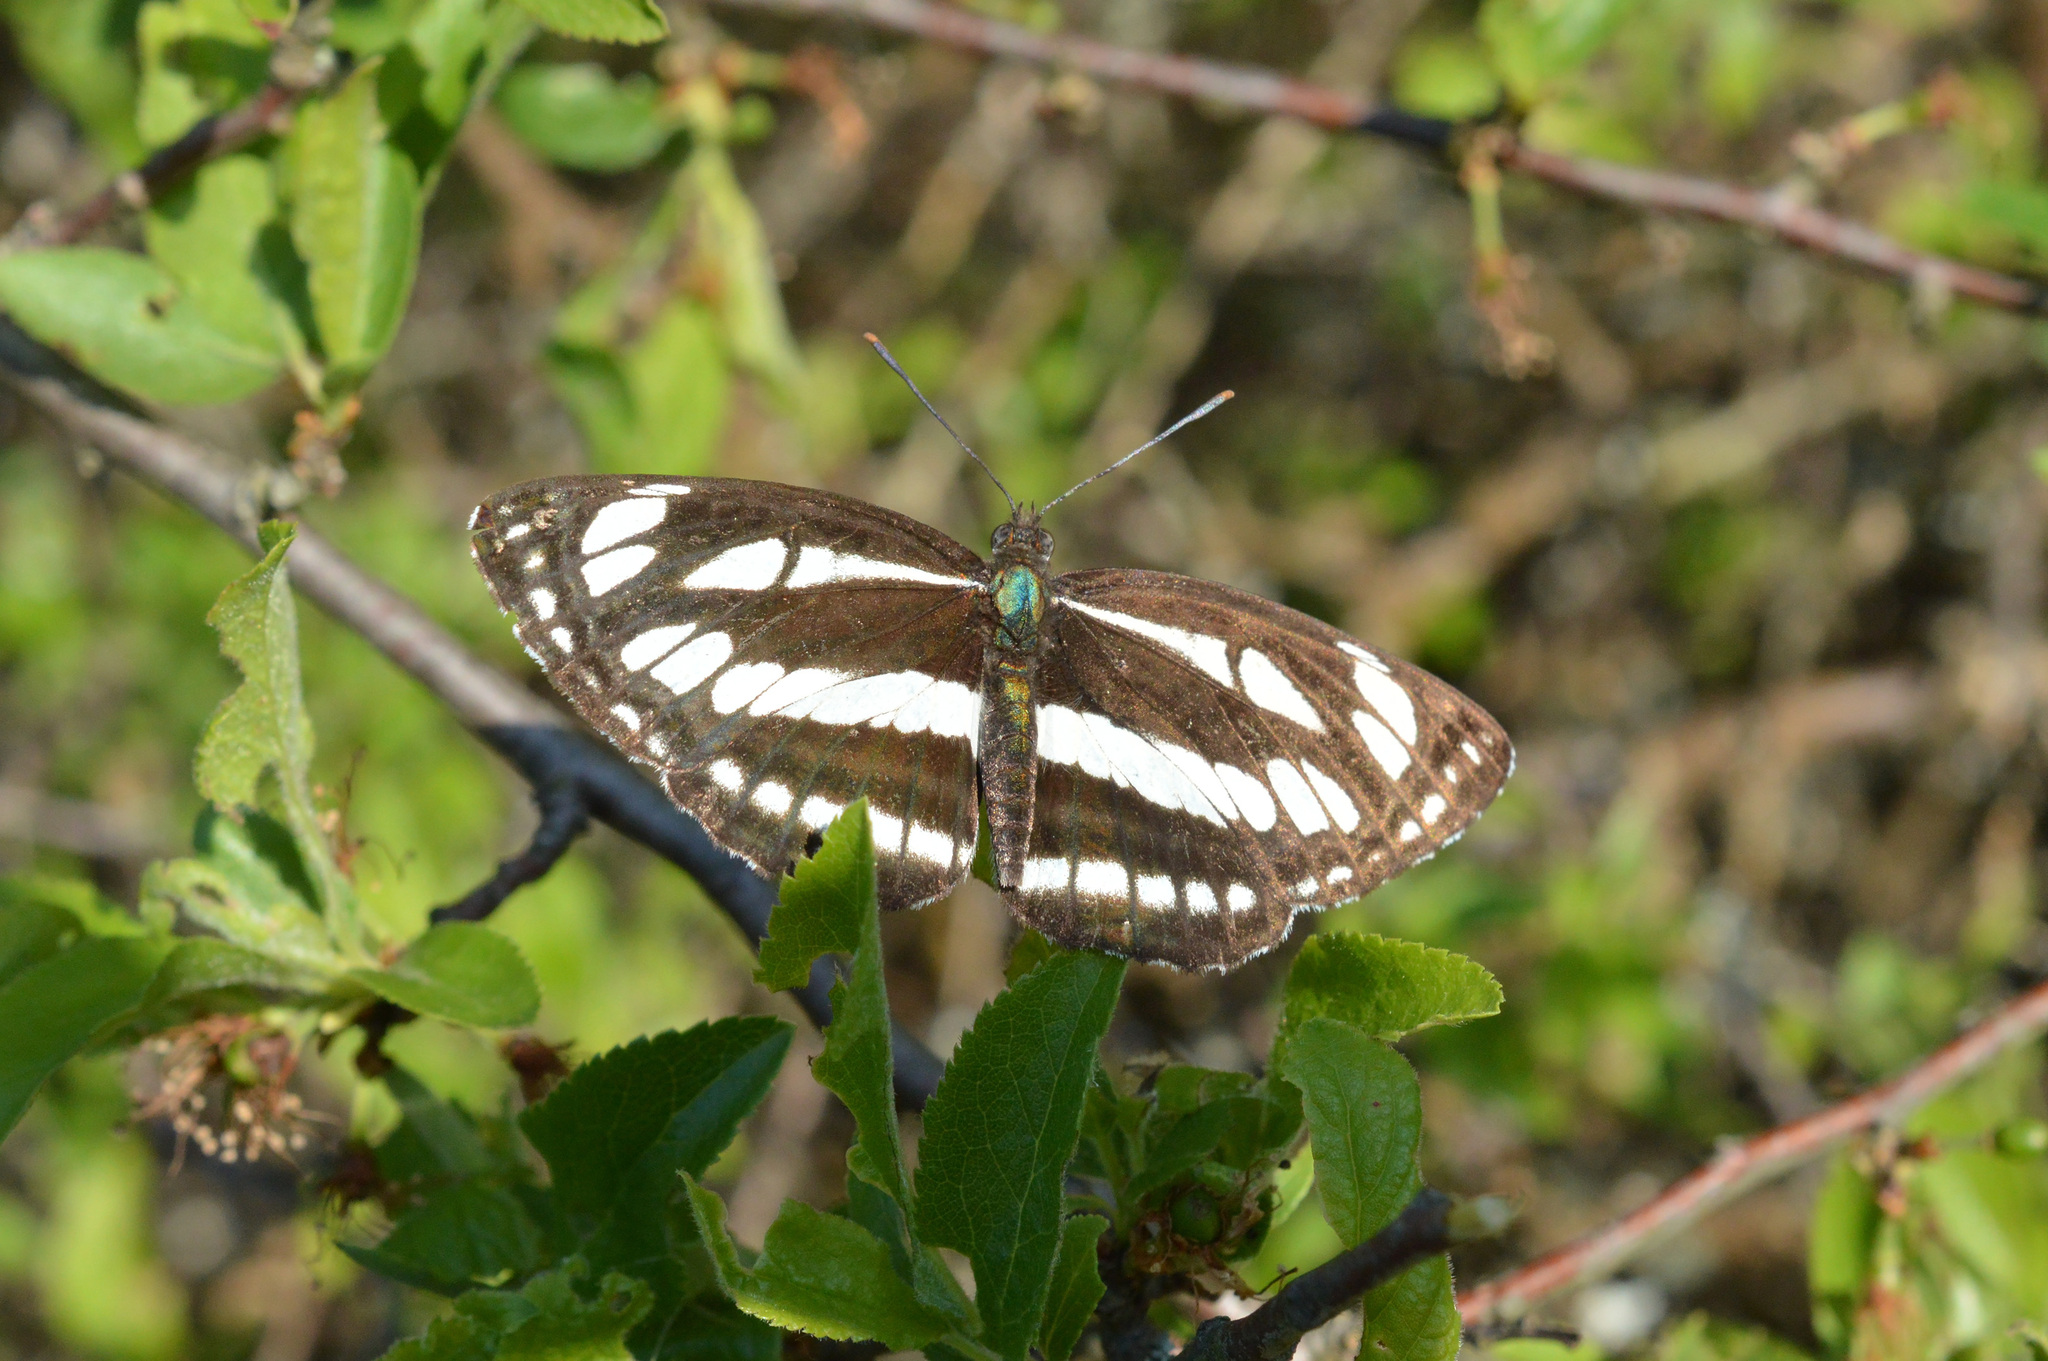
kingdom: Animalia
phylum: Arthropoda
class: Insecta
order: Lepidoptera
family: Nymphalidae
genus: Neptis
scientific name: Neptis sappho
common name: Common glider
